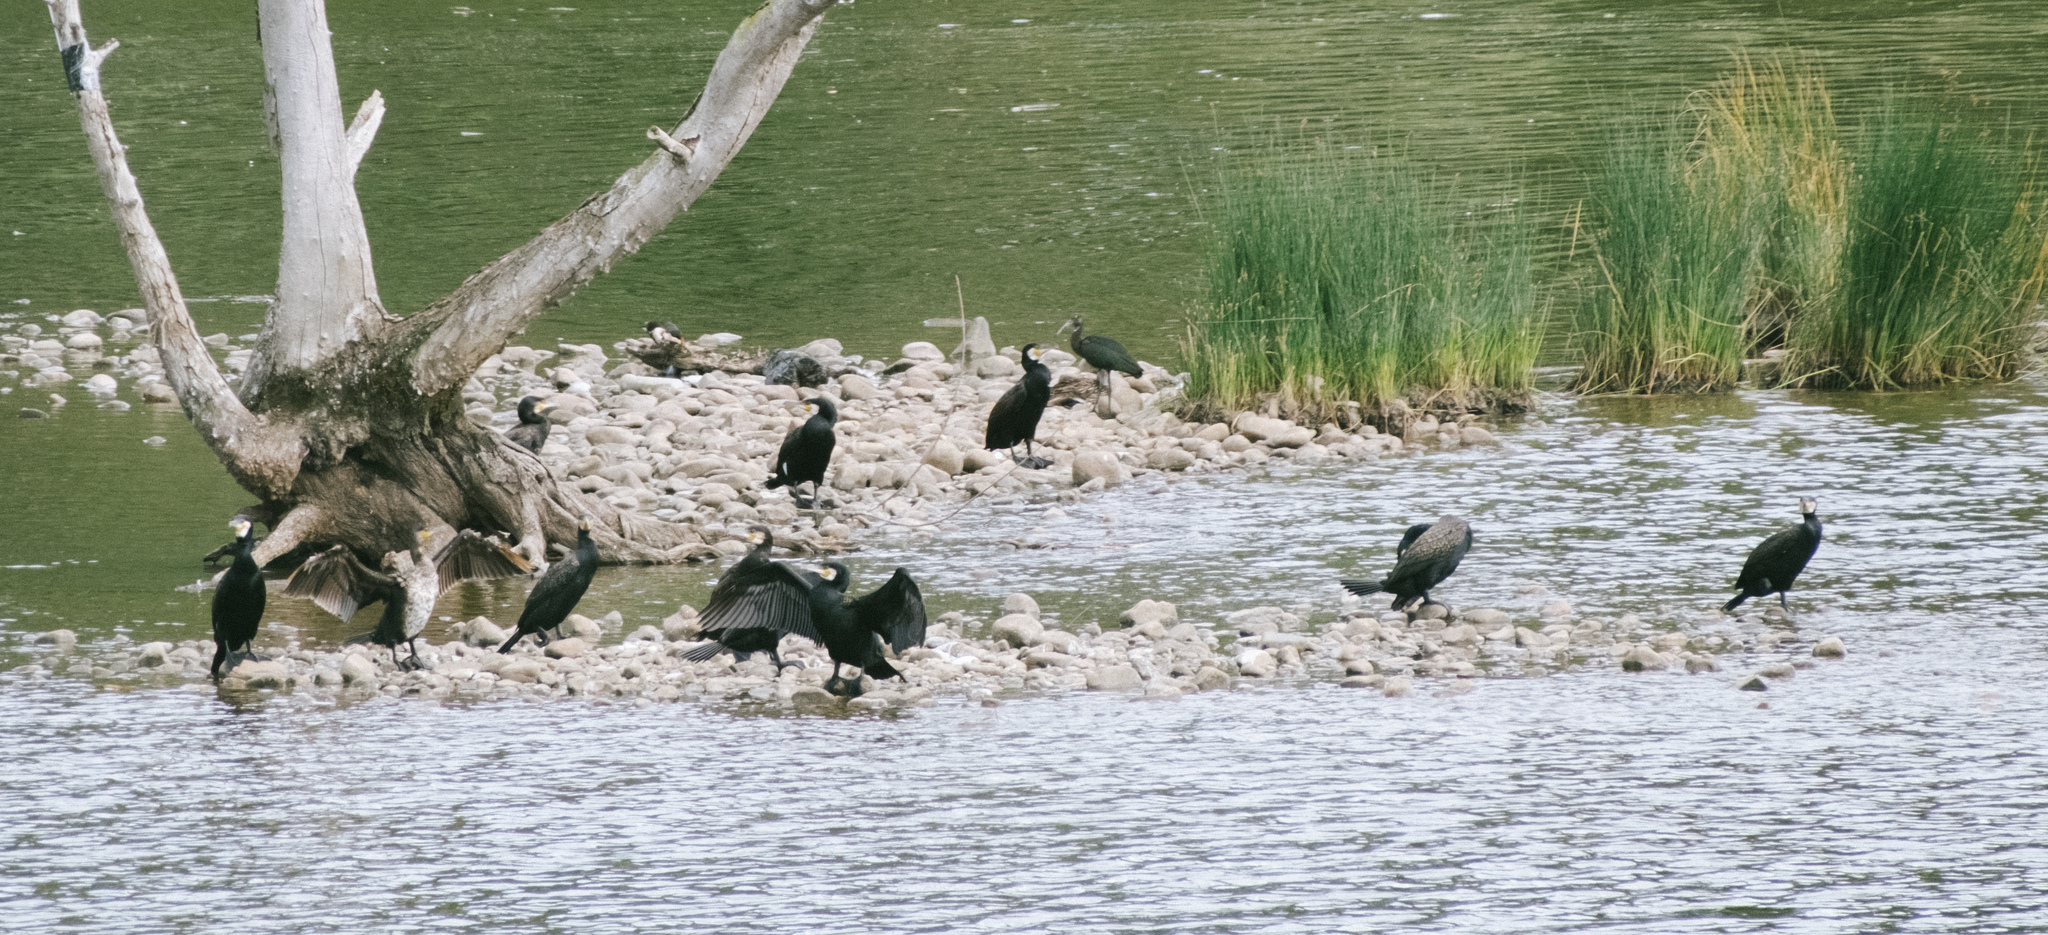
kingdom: Animalia
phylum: Chordata
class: Aves
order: Suliformes
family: Phalacrocoracidae
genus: Phalacrocorax
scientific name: Phalacrocorax carbo
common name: Great cormorant
